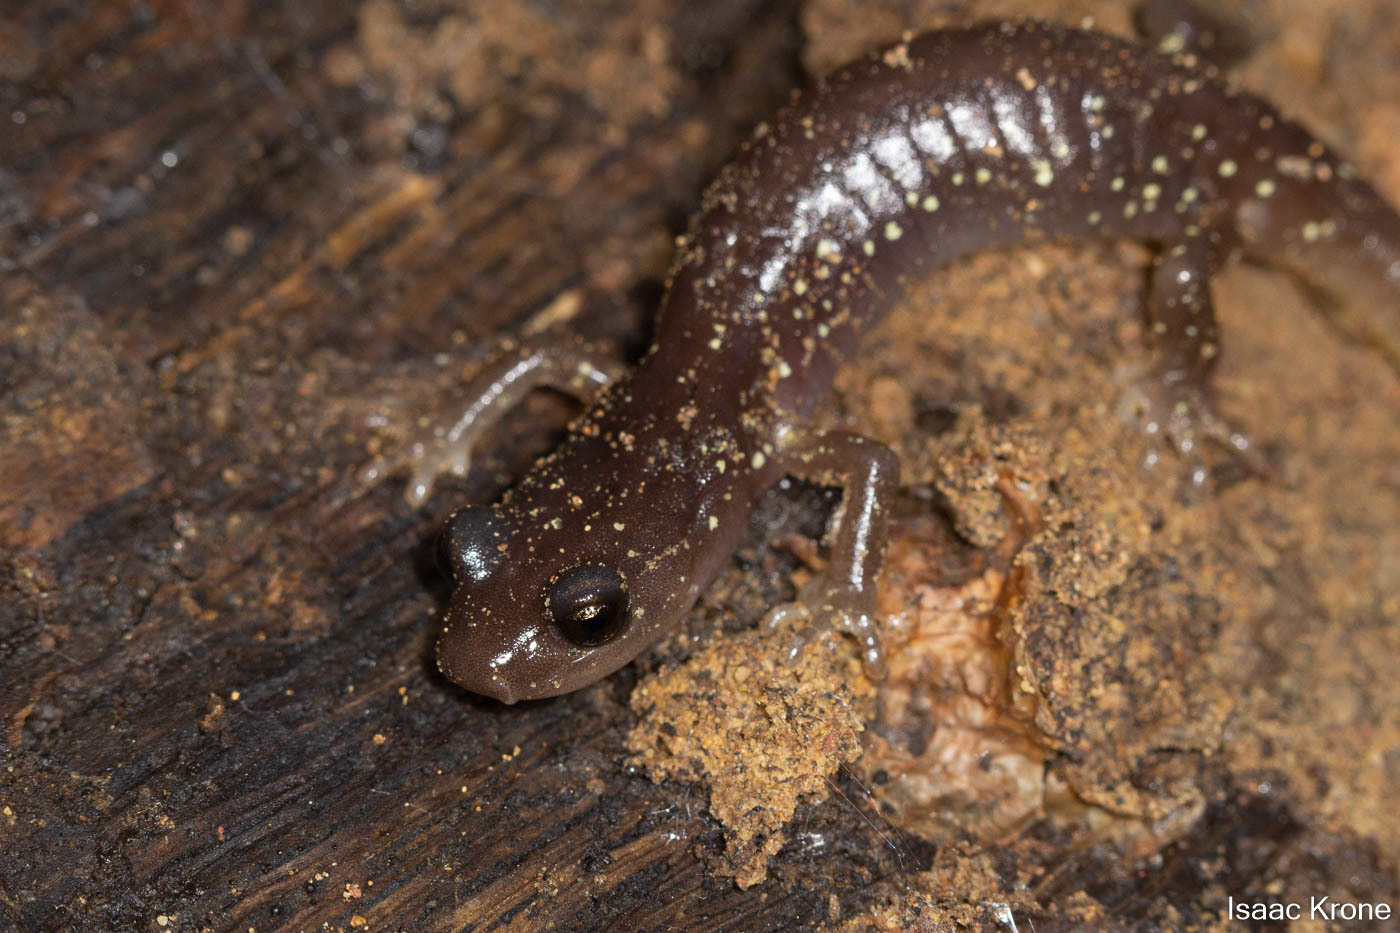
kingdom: Animalia
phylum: Chordata
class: Amphibia
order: Caudata
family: Plethodontidae
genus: Aneides
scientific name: Aneides lugubris
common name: Arboreal salamander
